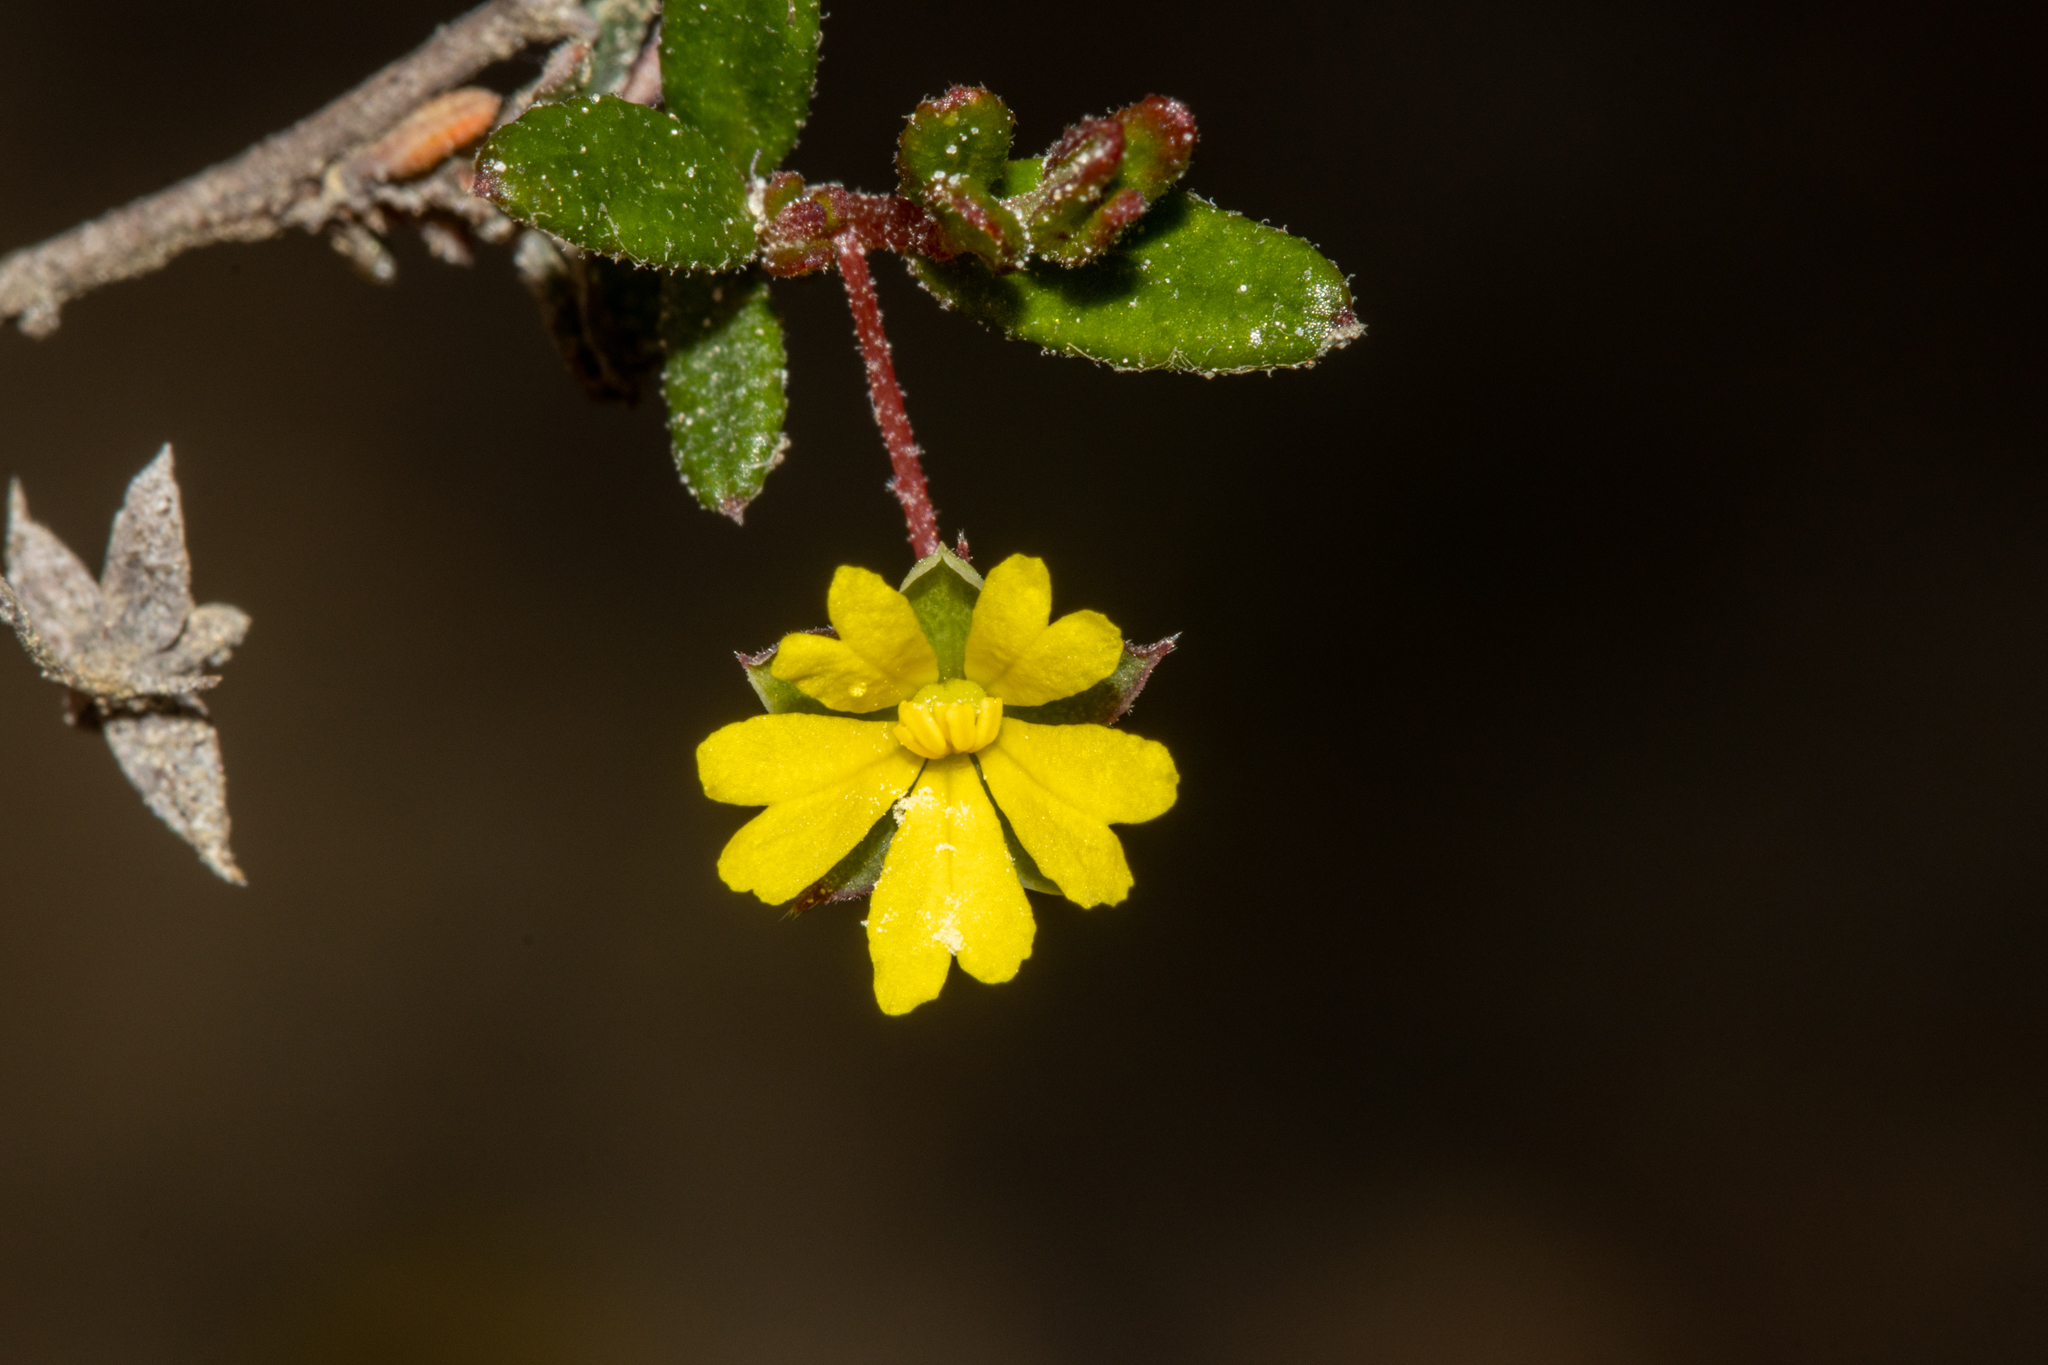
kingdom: Plantae
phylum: Tracheophyta
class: Magnoliopsida
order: Dilleniales
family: Dilleniaceae
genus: Hibbertia
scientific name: Hibbertia
